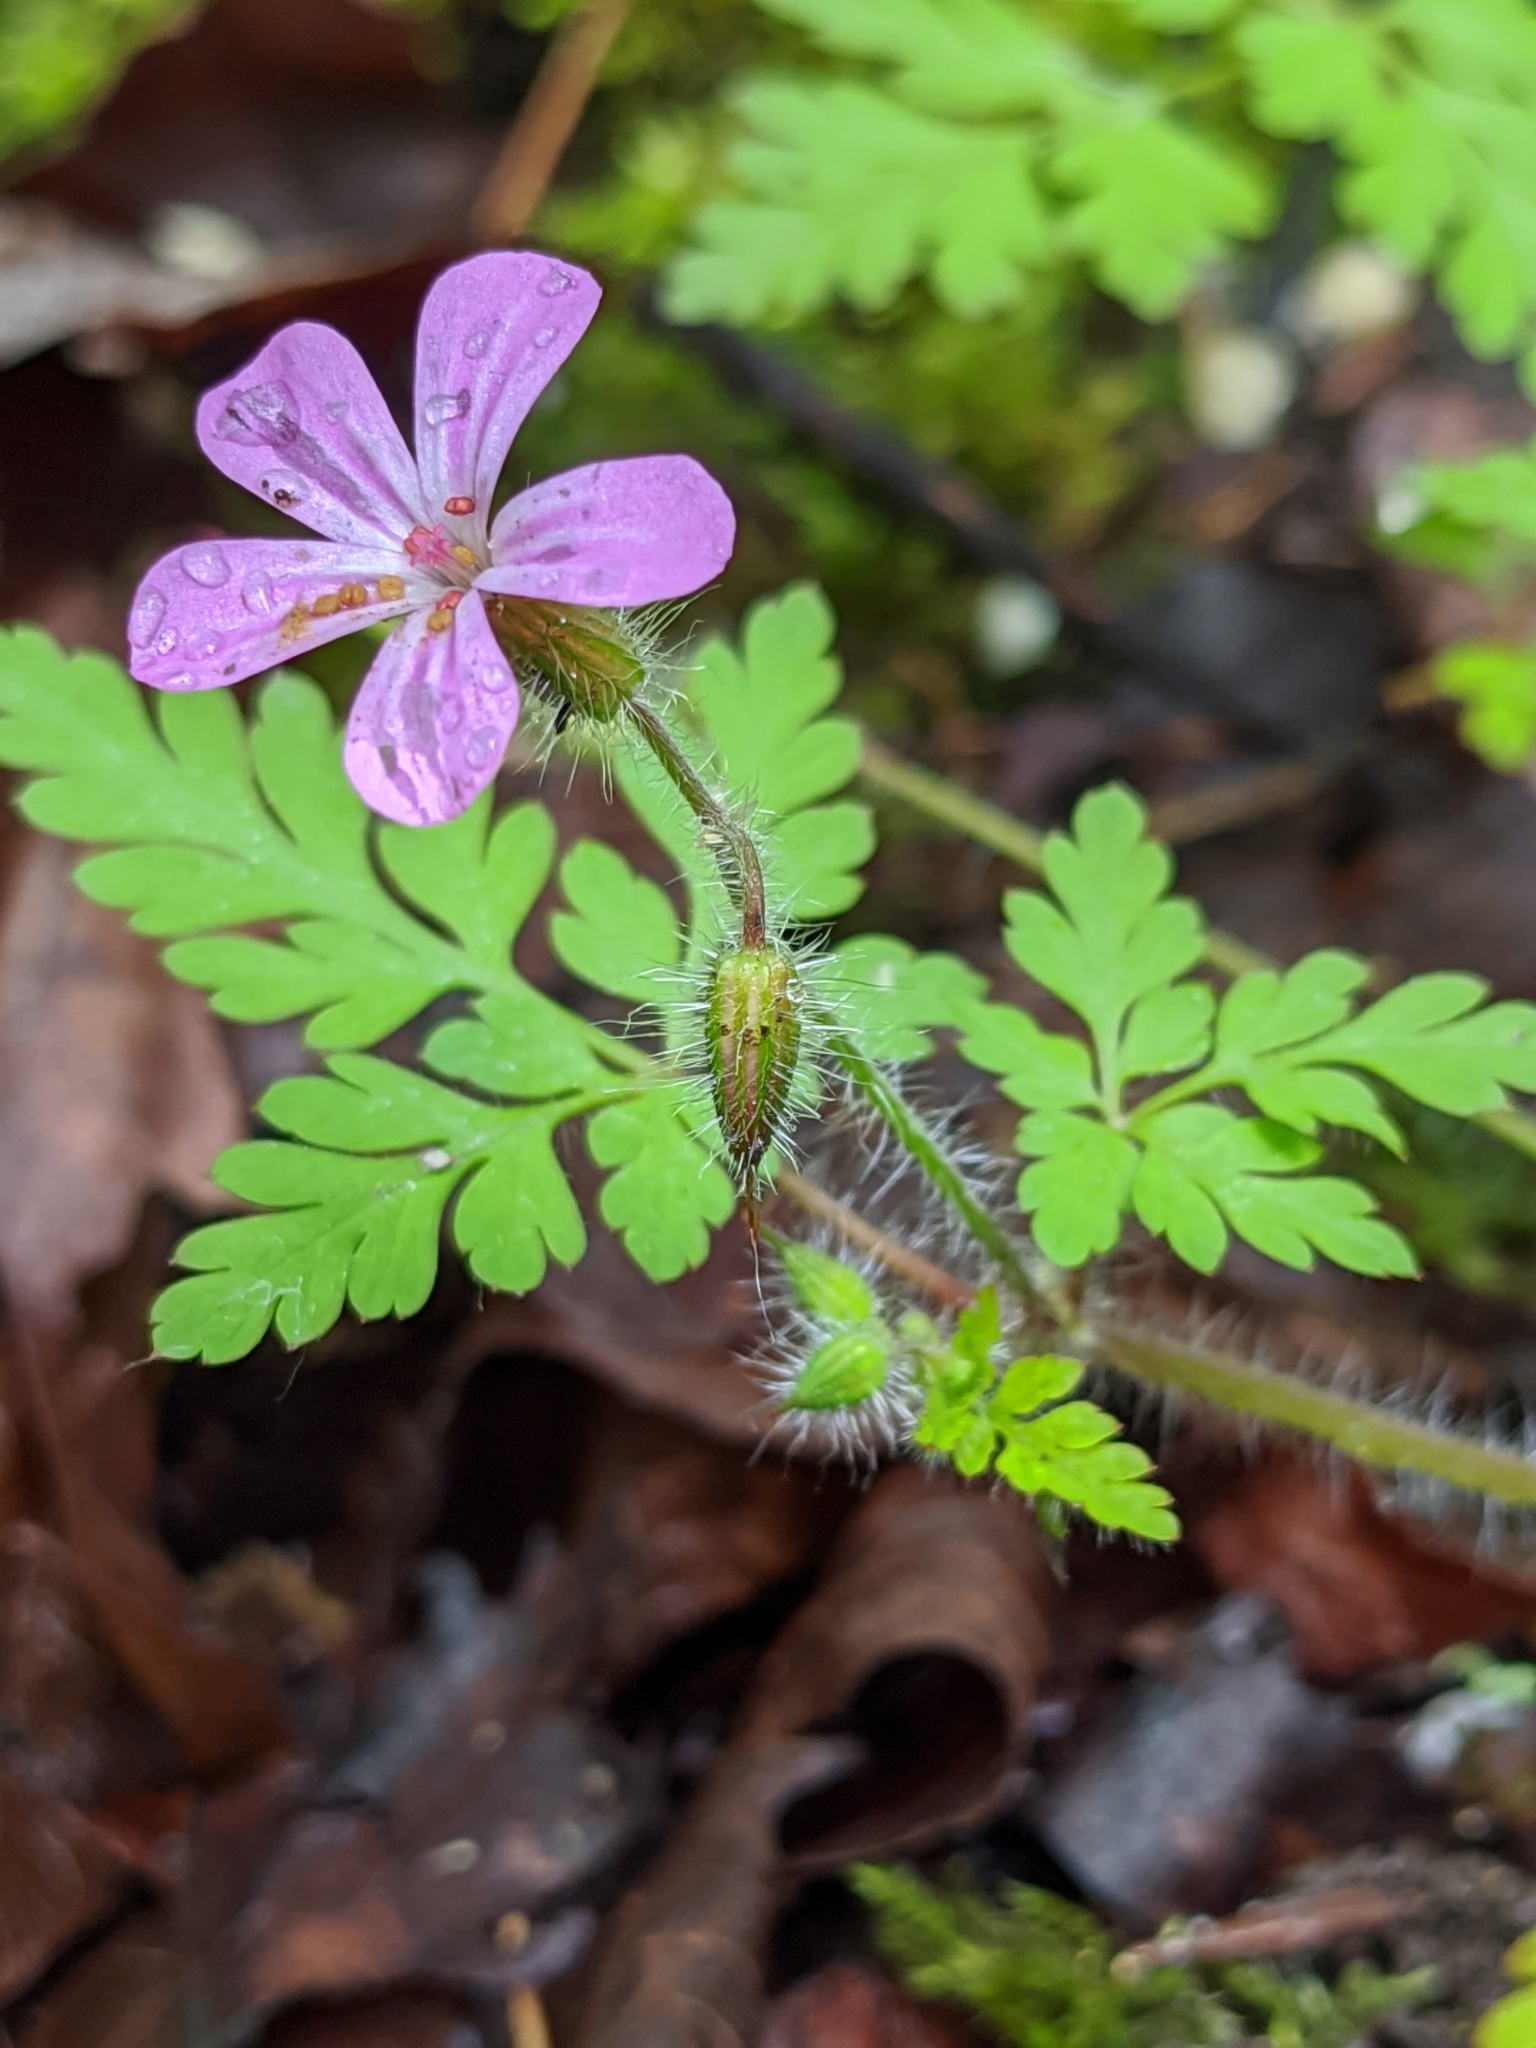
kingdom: Plantae
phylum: Tracheophyta
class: Magnoliopsida
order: Geraniales
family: Geraniaceae
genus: Geranium
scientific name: Geranium robertianum
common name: Herb-robert
